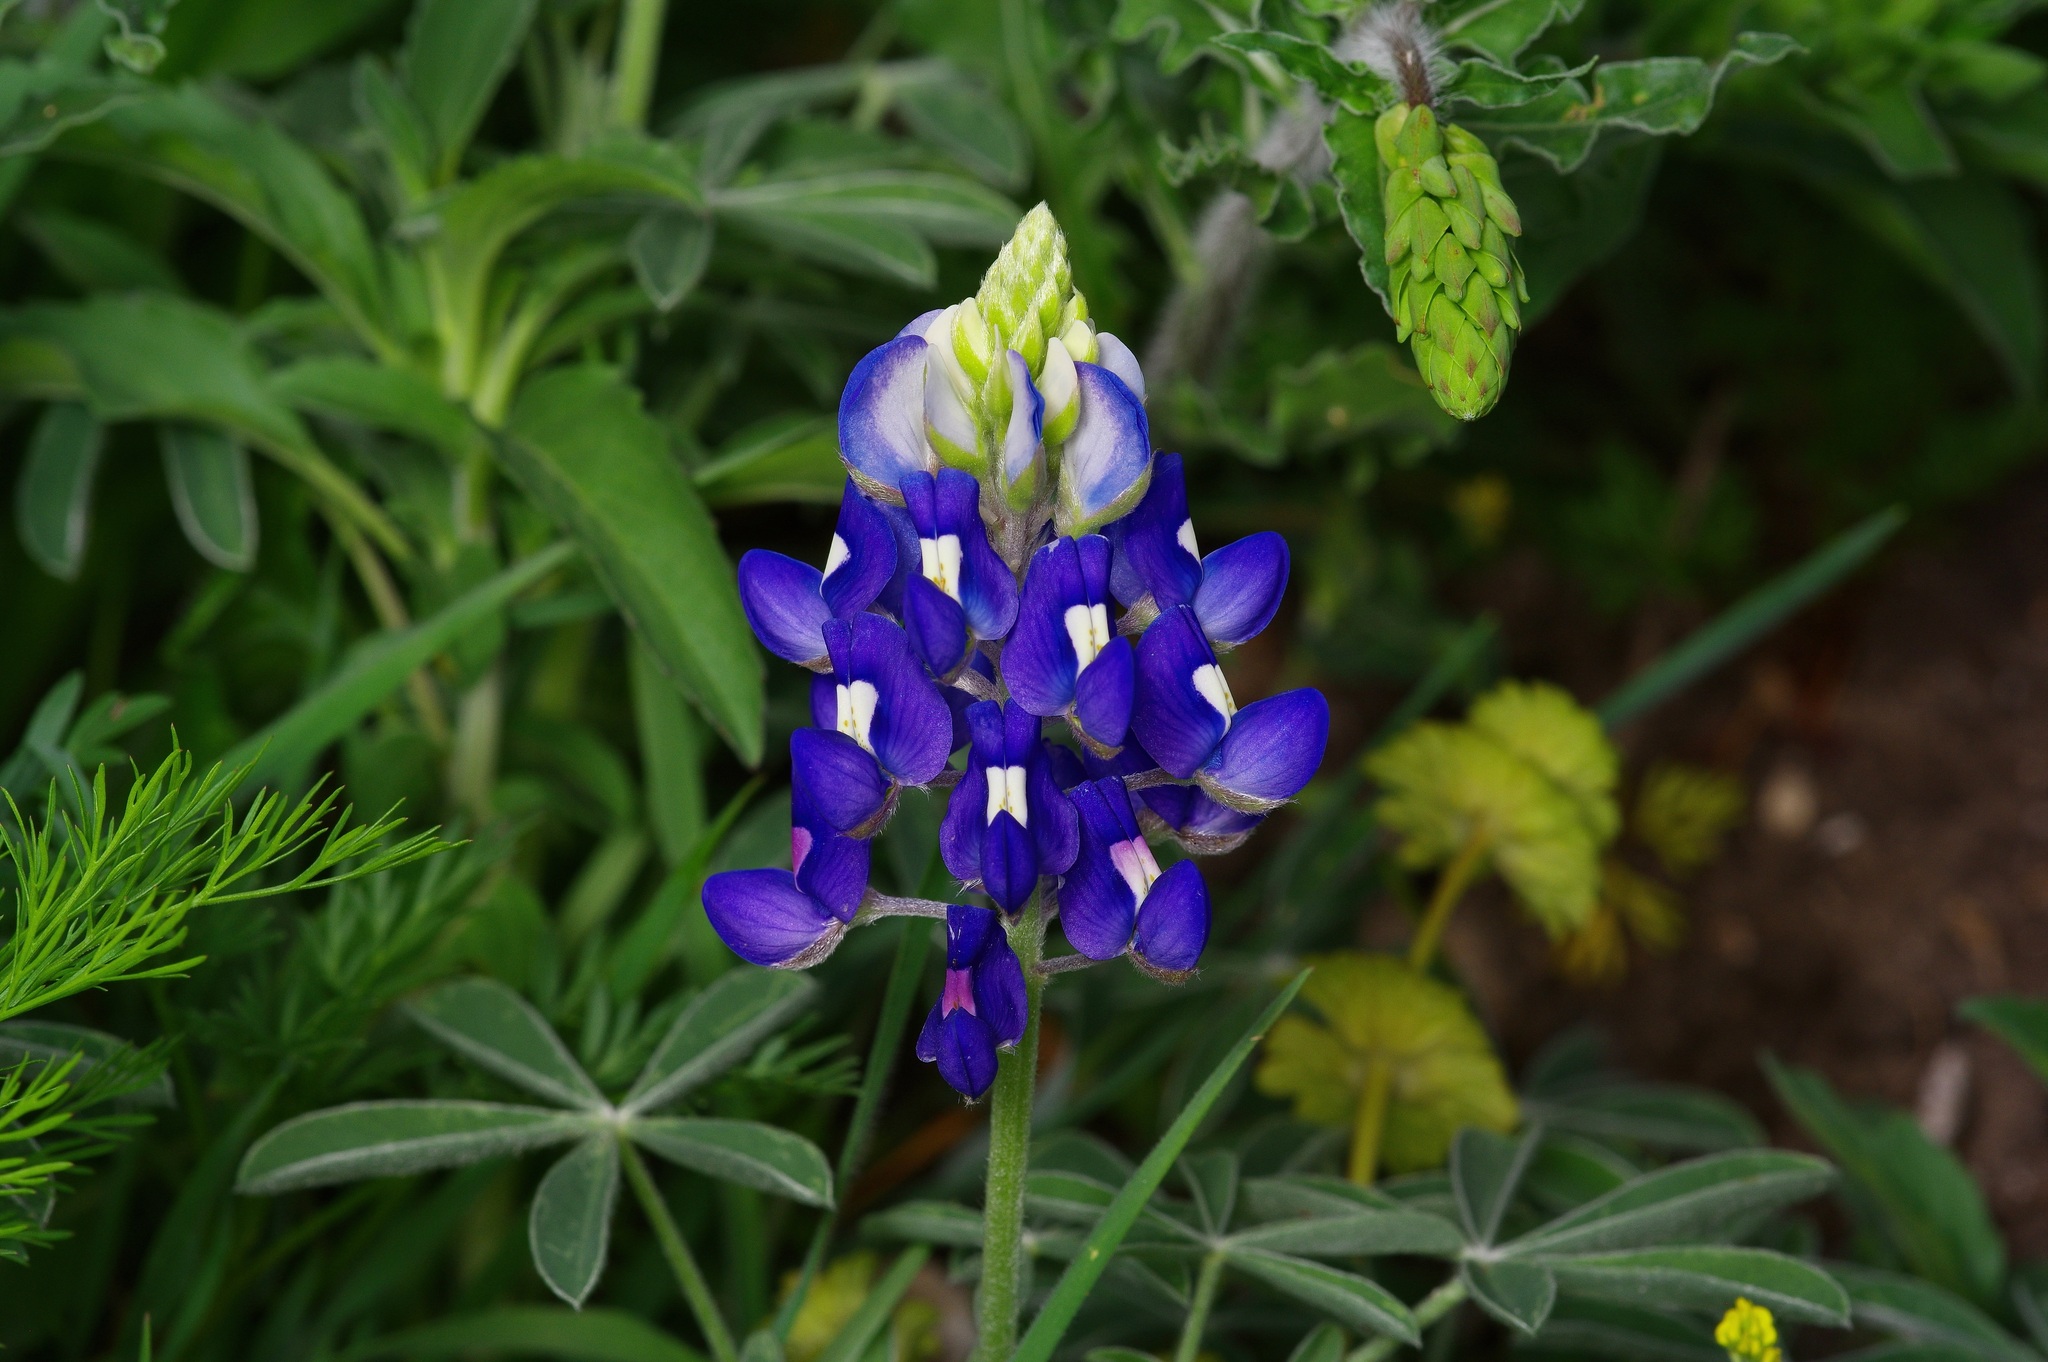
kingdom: Plantae
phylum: Tracheophyta
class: Magnoliopsida
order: Fabales
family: Fabaceae
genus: Lupinus
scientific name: Lupinus texensis
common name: Texas bluebonnet
